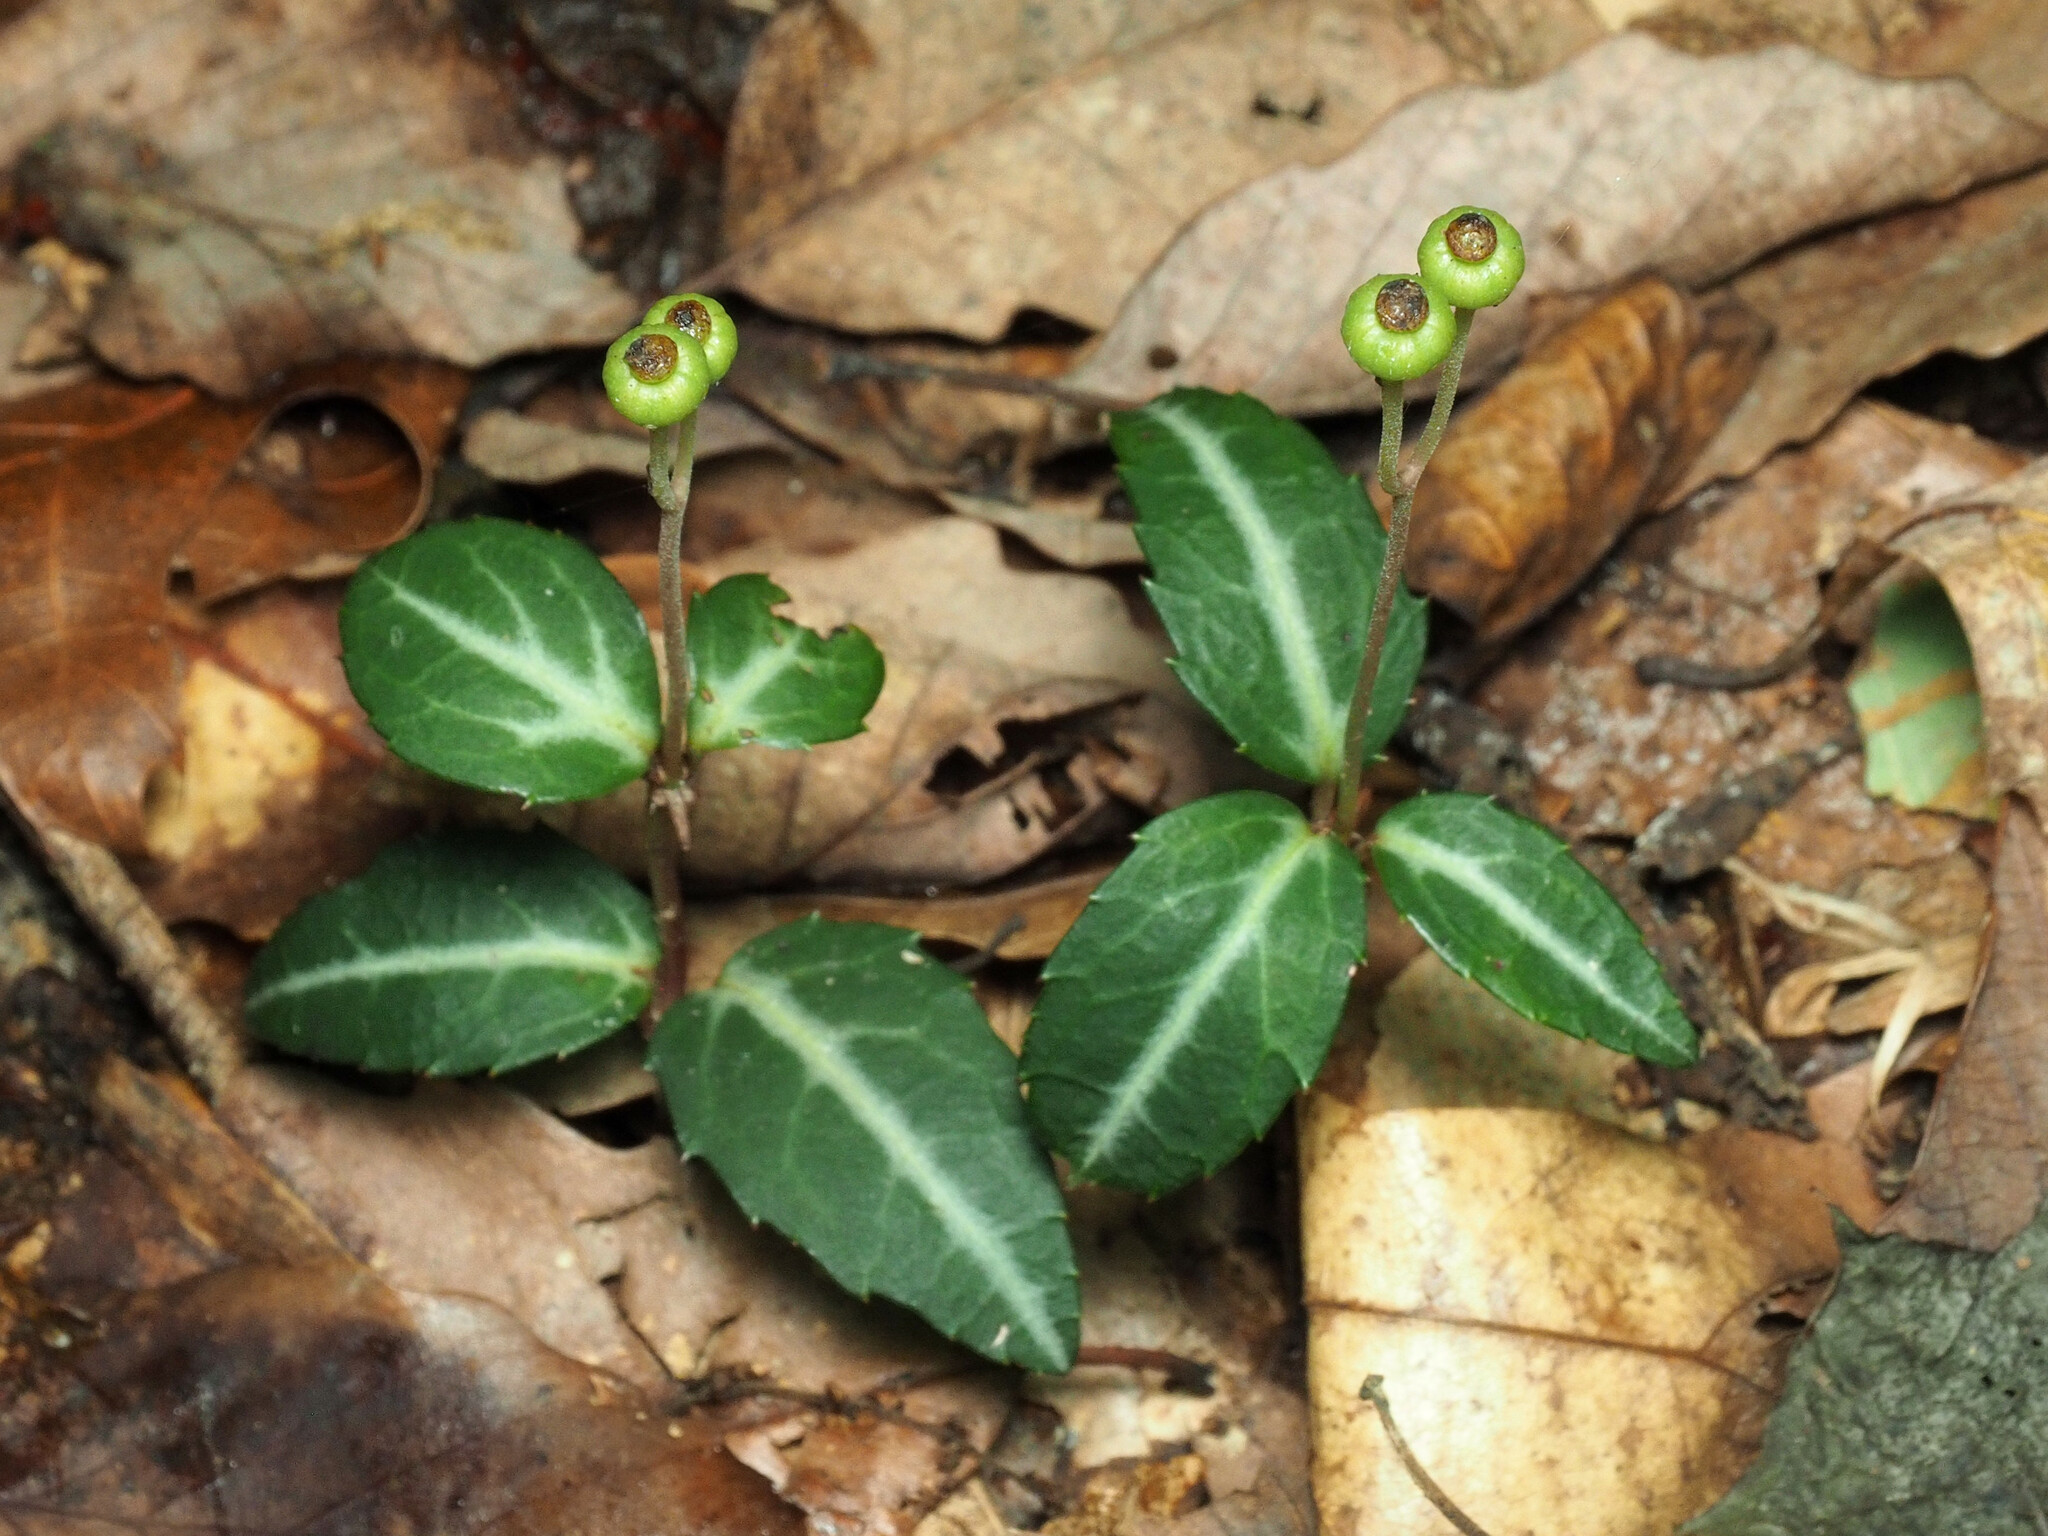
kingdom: Plantae
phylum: Tracheophyta
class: Magnoliopsida
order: Ericales
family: Ericaceae
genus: Chimaphila
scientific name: Chimaphila maculata
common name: Spotted pipsissewa
